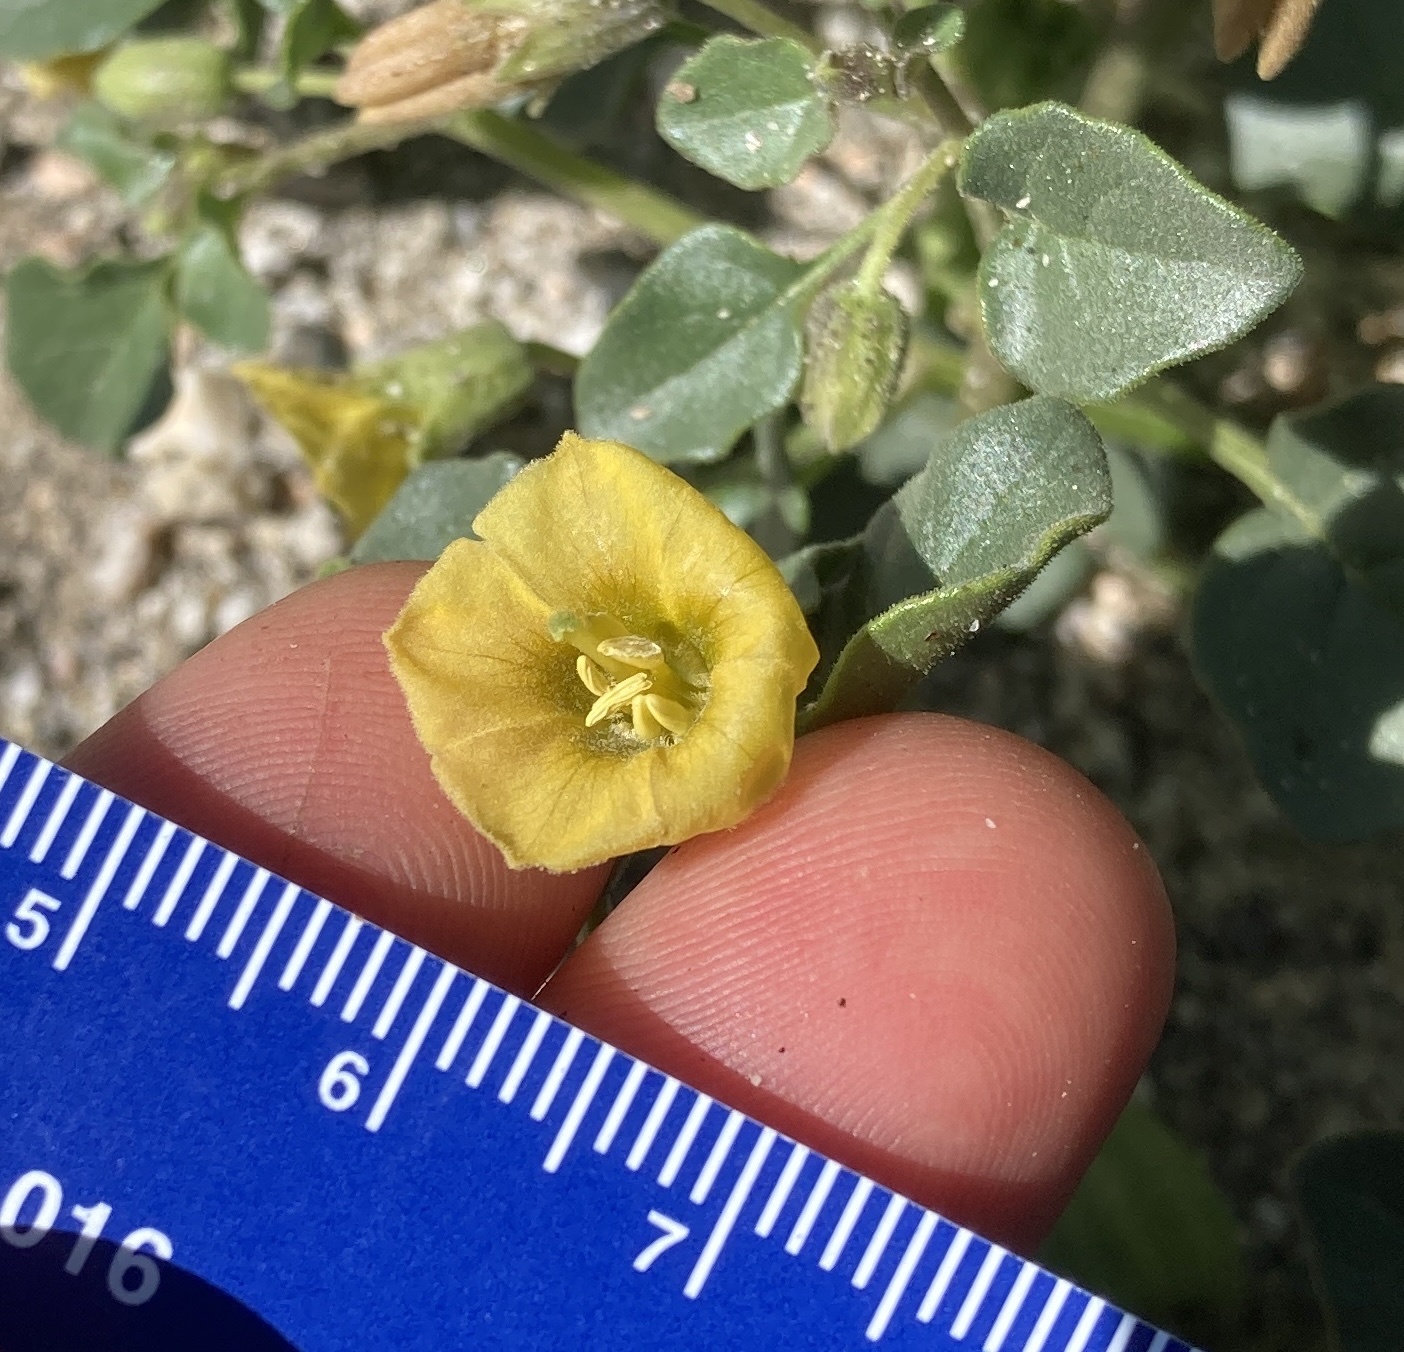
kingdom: Plantae
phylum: Tracheophyta
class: Magnoliopsida
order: Solanales
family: Solanaceae
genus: Physalis
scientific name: Physalis crassifolia
